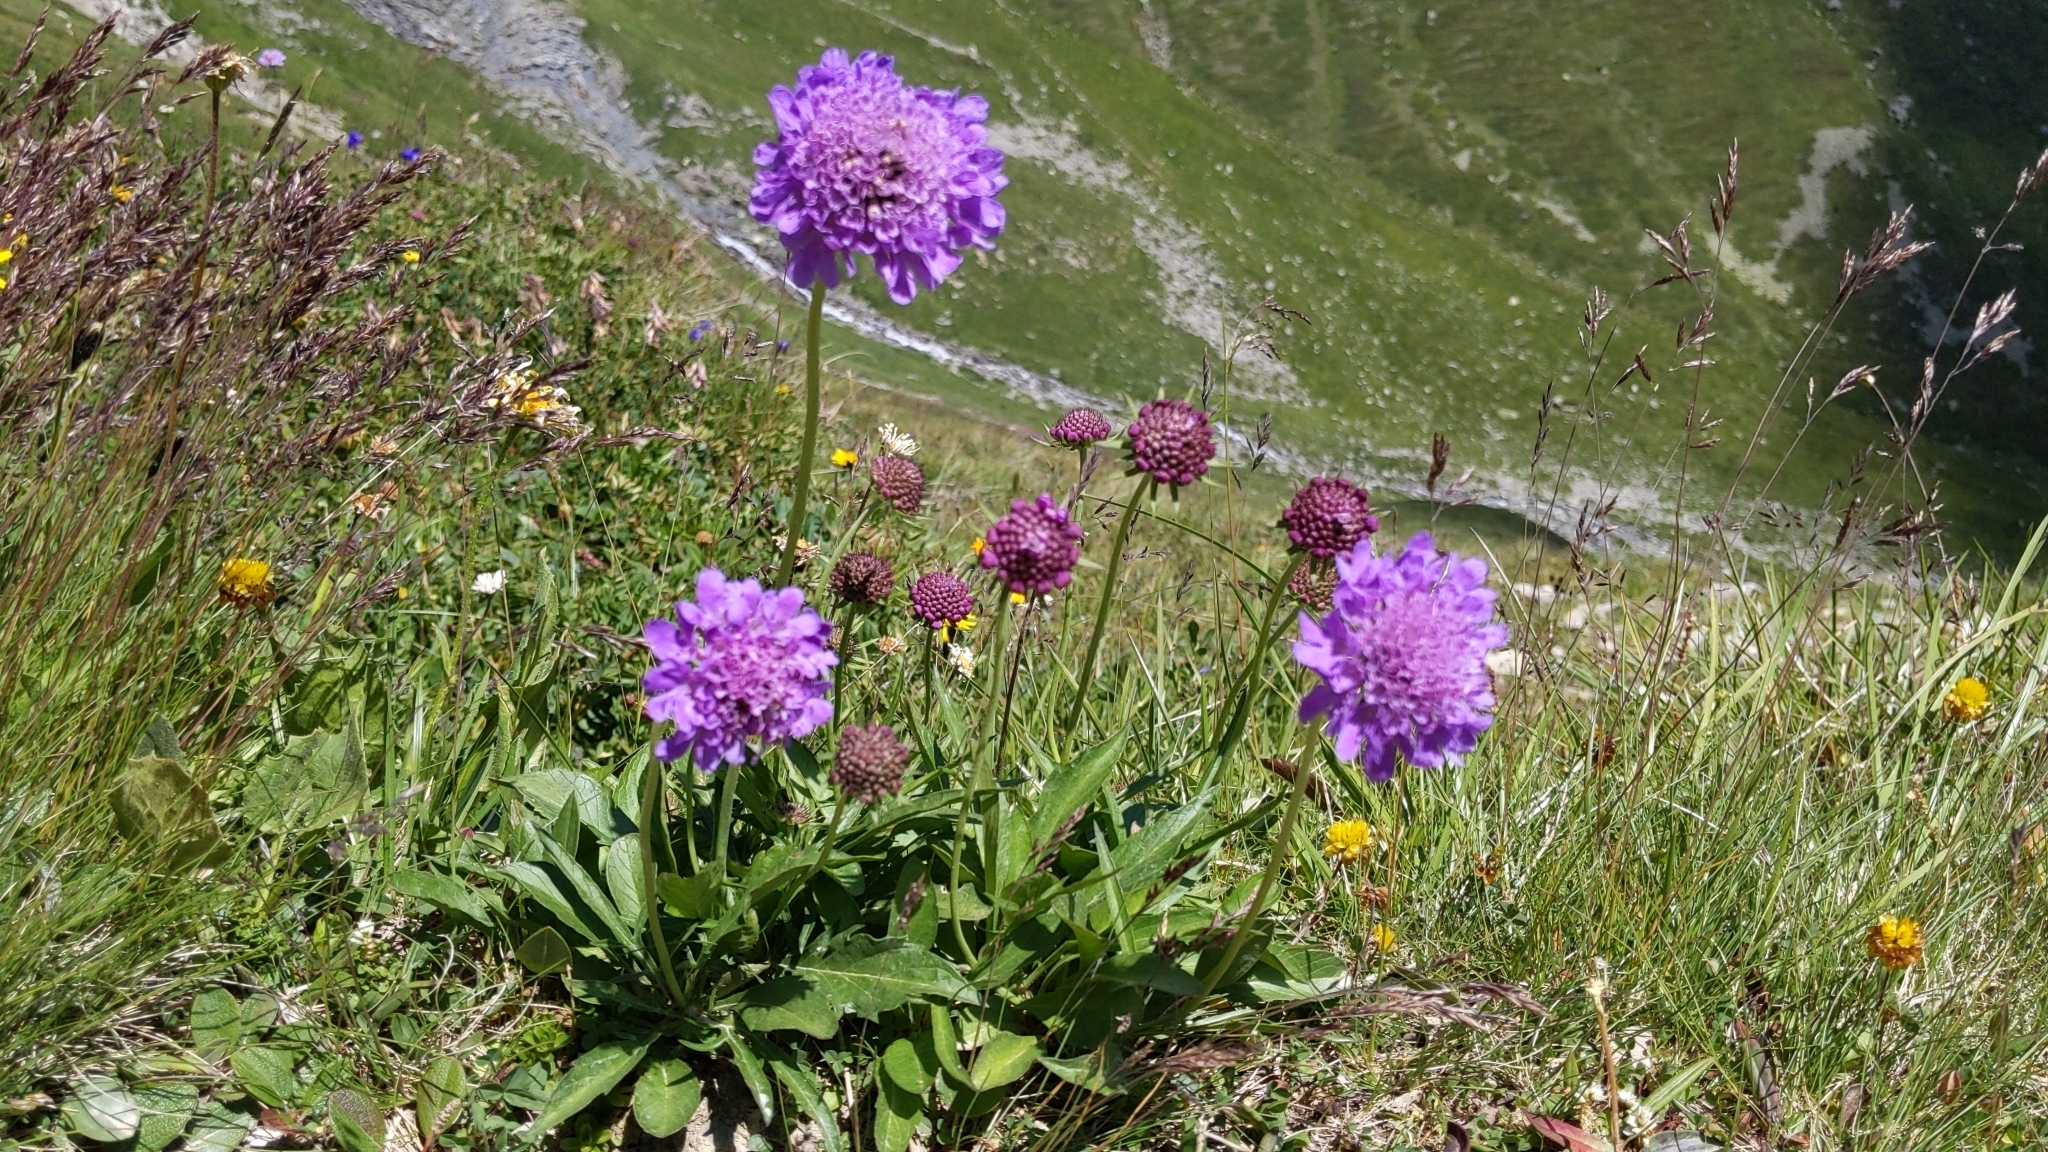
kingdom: Plantae
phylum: Tracheophyta
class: Magnoliopsida
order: Dipsacales
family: Caprifoliaceae
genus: Scabiosa
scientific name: Scabiosa lucida
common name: Shining scabious
